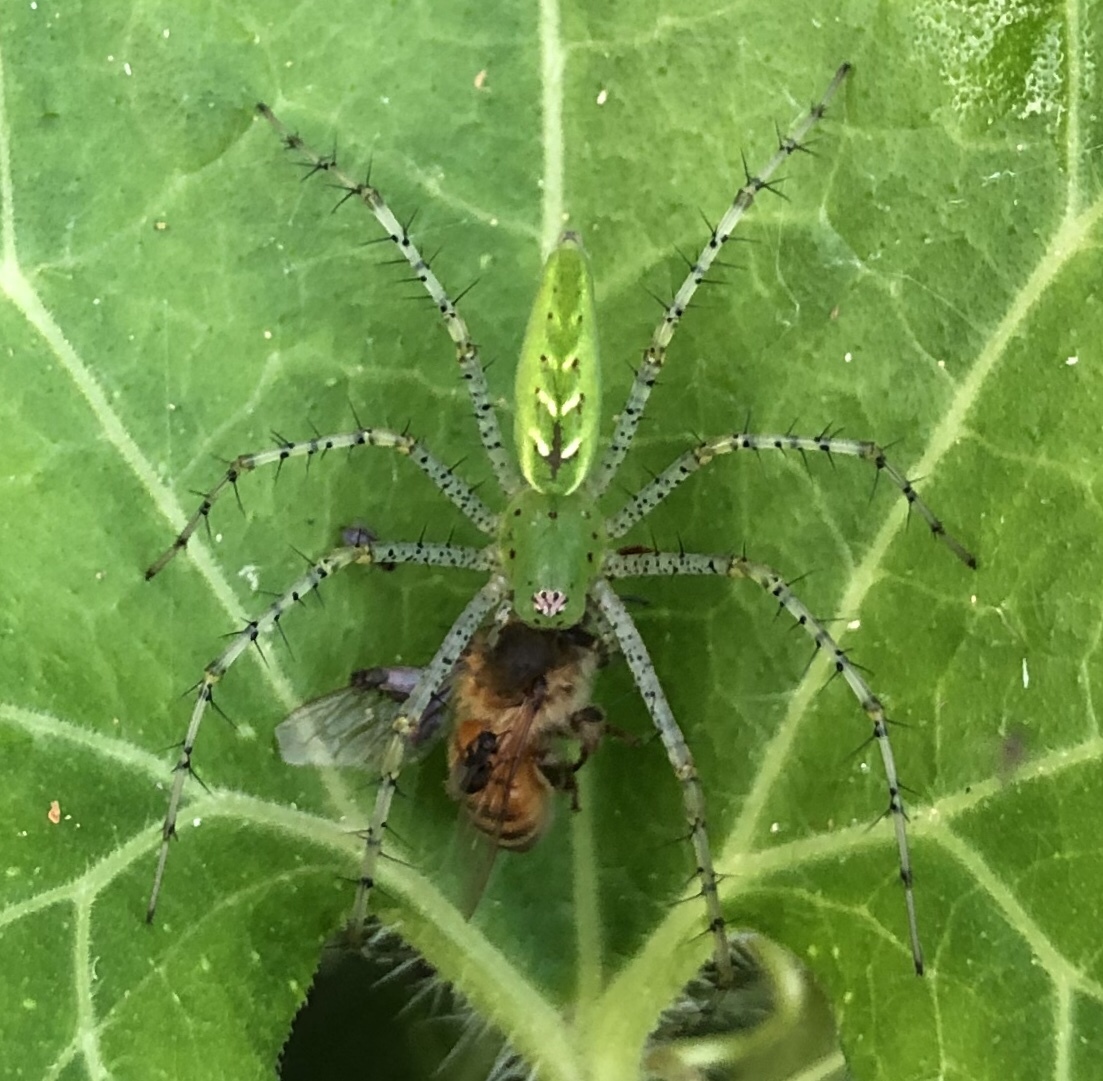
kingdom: Animalia
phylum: Arthropoda
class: Arachnida
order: Araneae
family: Oxyopidae
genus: Peucetia
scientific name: Peucetia viridans
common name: Lynx spiders
